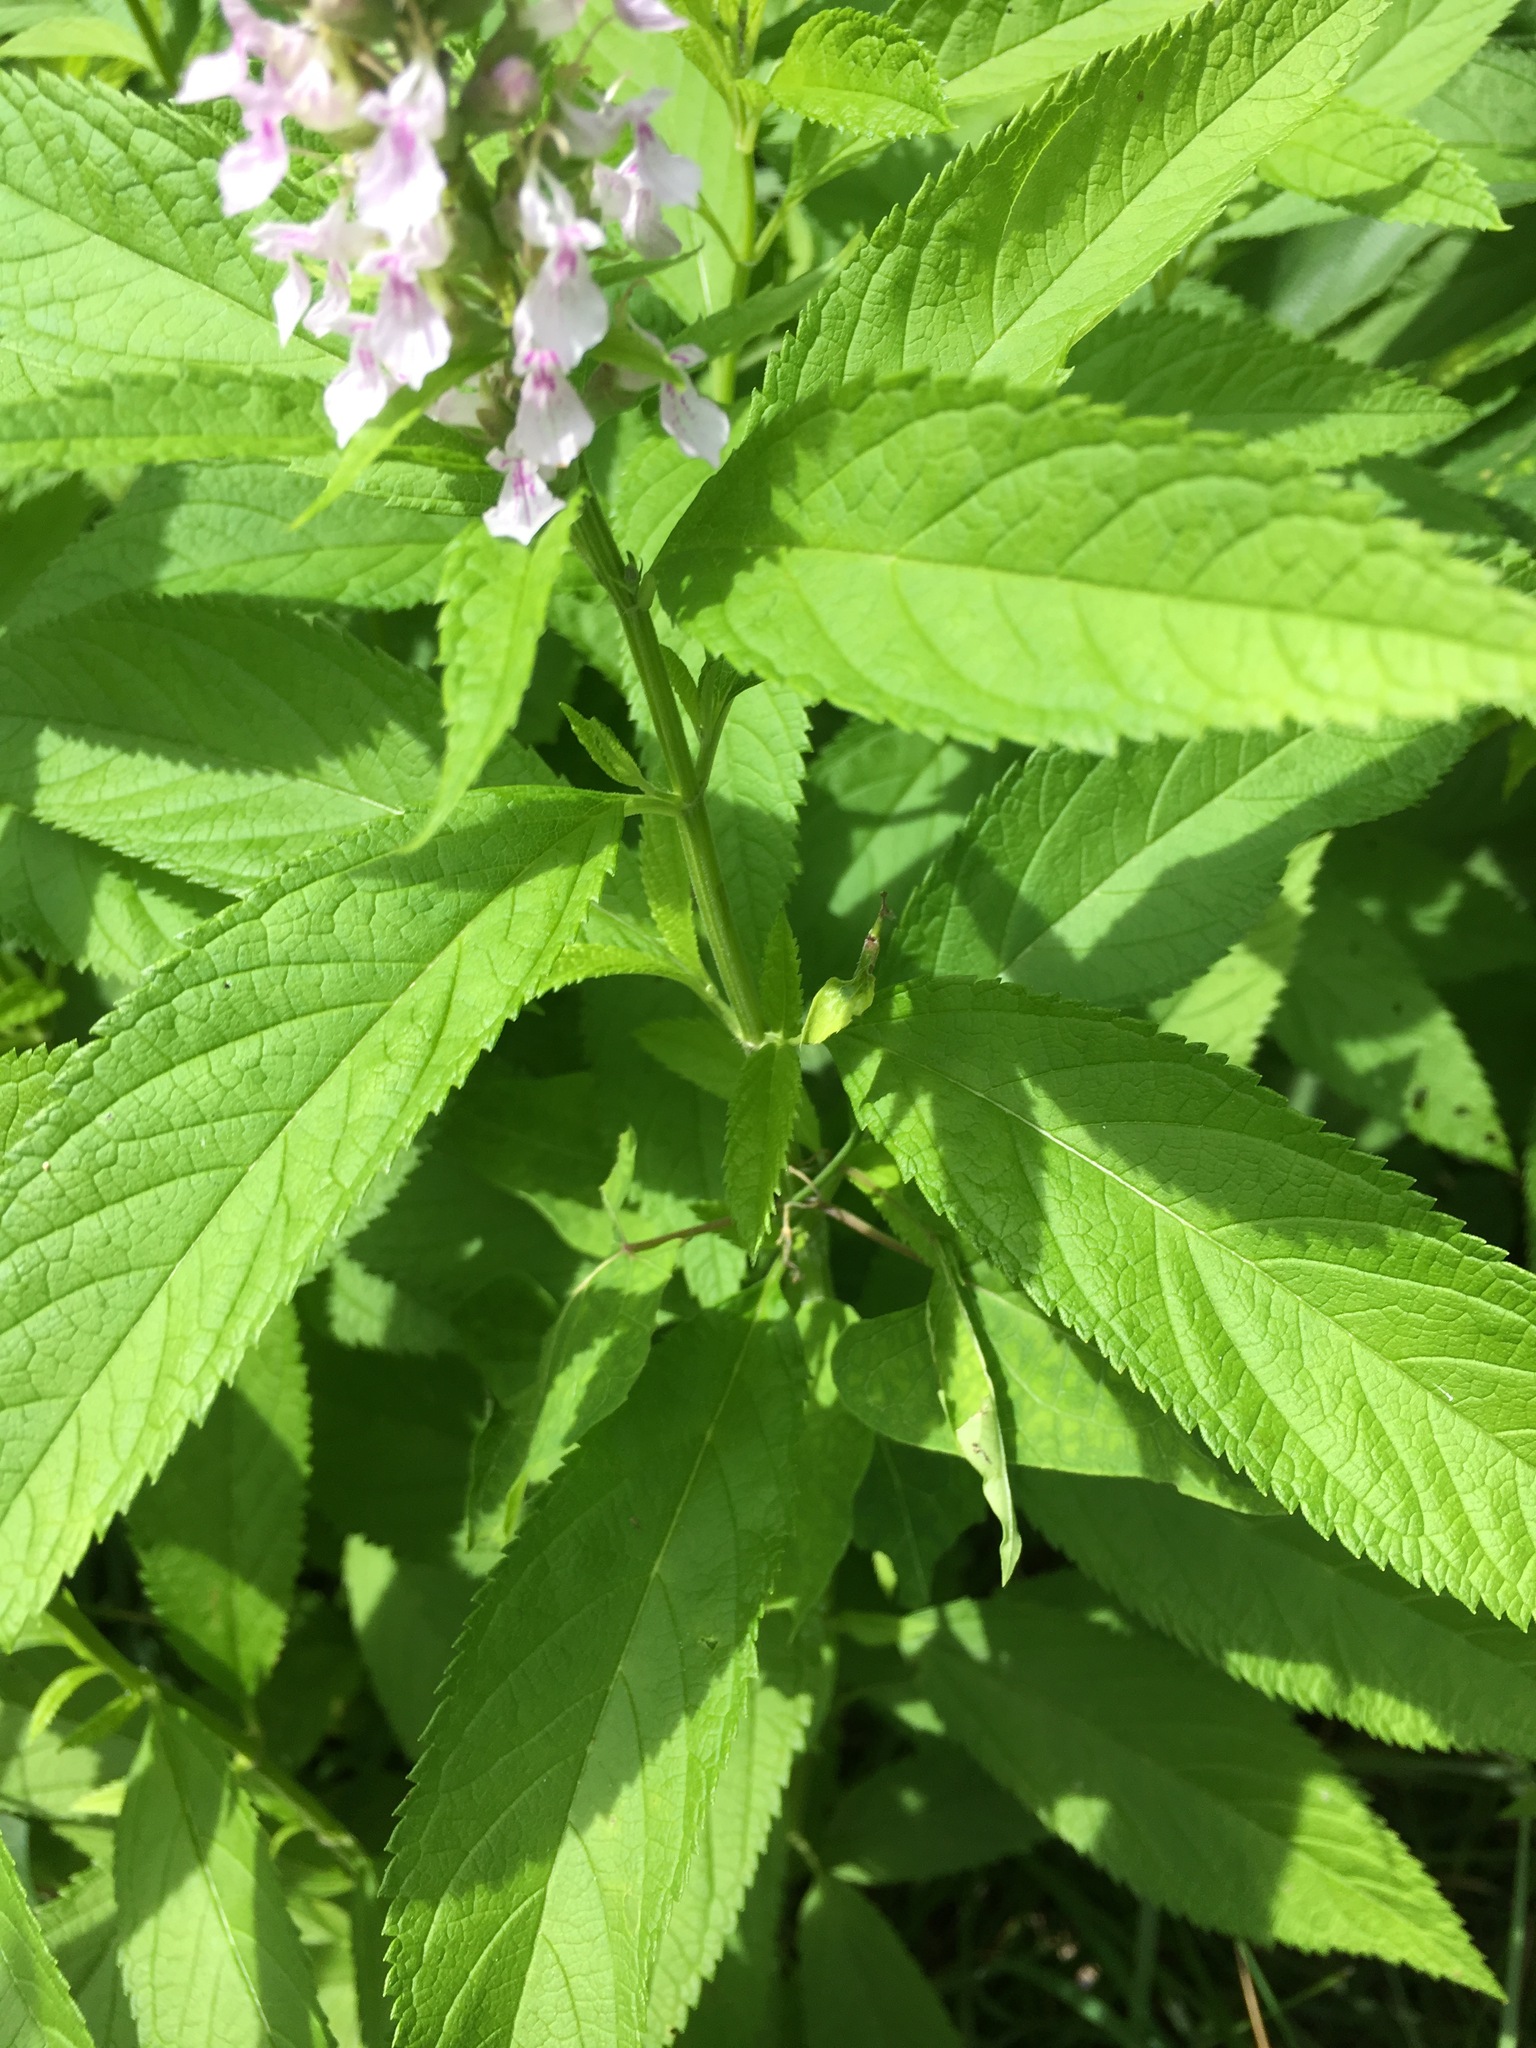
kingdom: Plantae
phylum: Tracheophyta
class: Magnoliopsida
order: Lamiales
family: Lamiaceae
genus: Teucrium
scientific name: Teucrium canadense
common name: American germander
